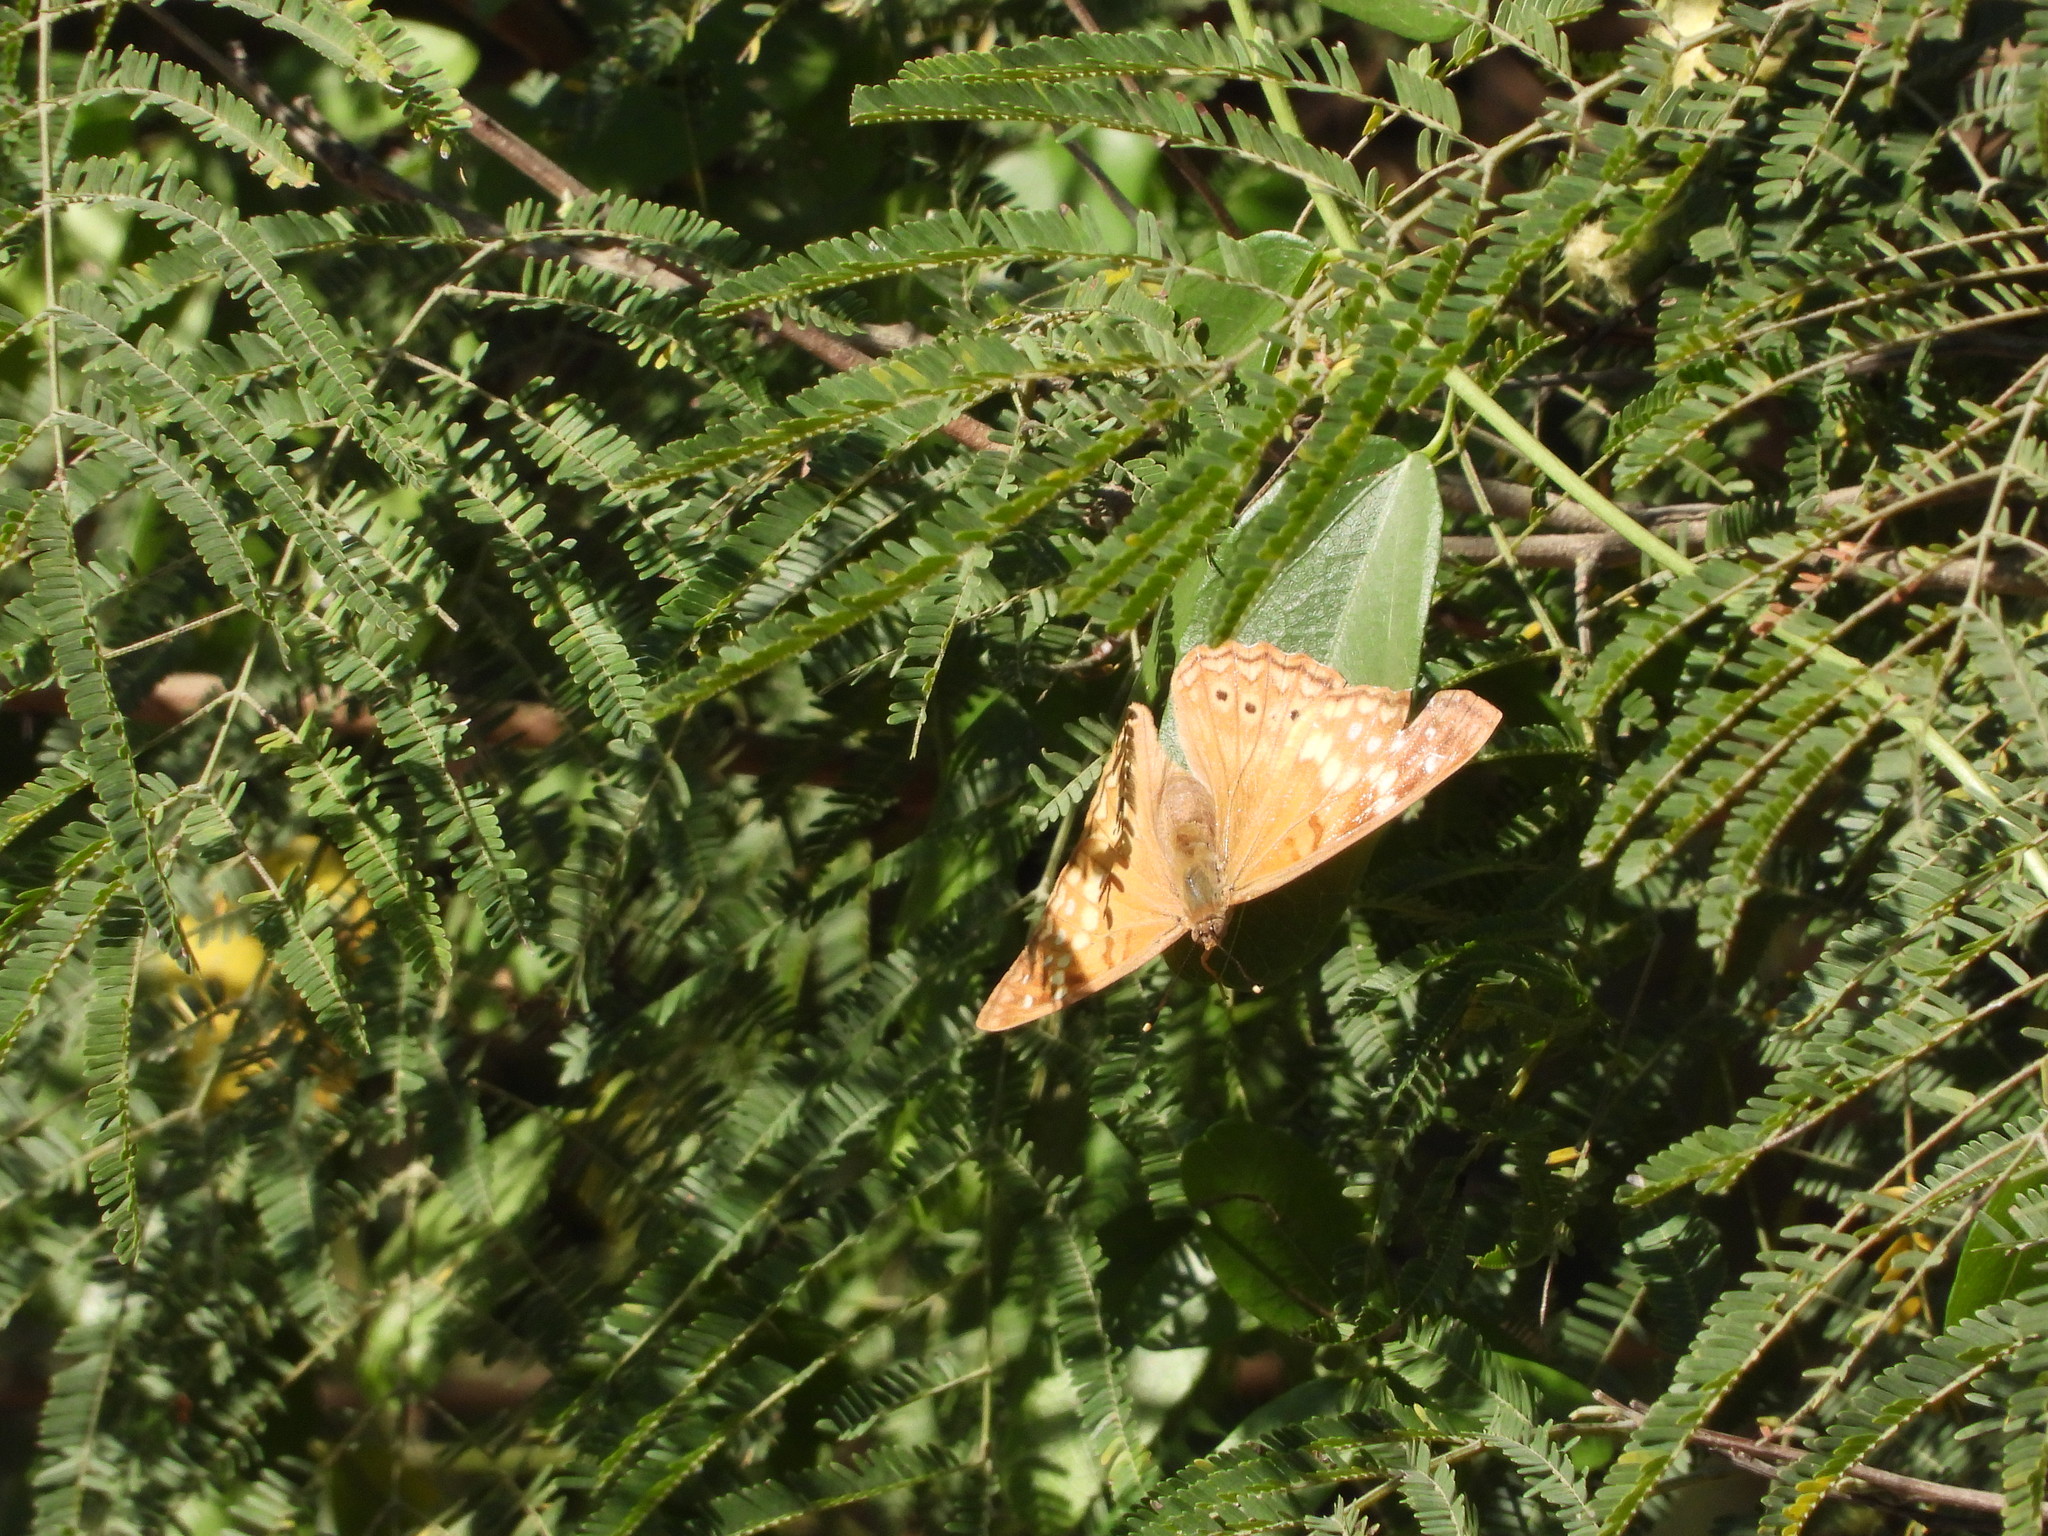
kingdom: Animalia
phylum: Arthropoda
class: Insecta
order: Lepidoptera
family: Nymphalidae
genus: Asterocampa
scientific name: Asterocampa clyton
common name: Tawny emperor
